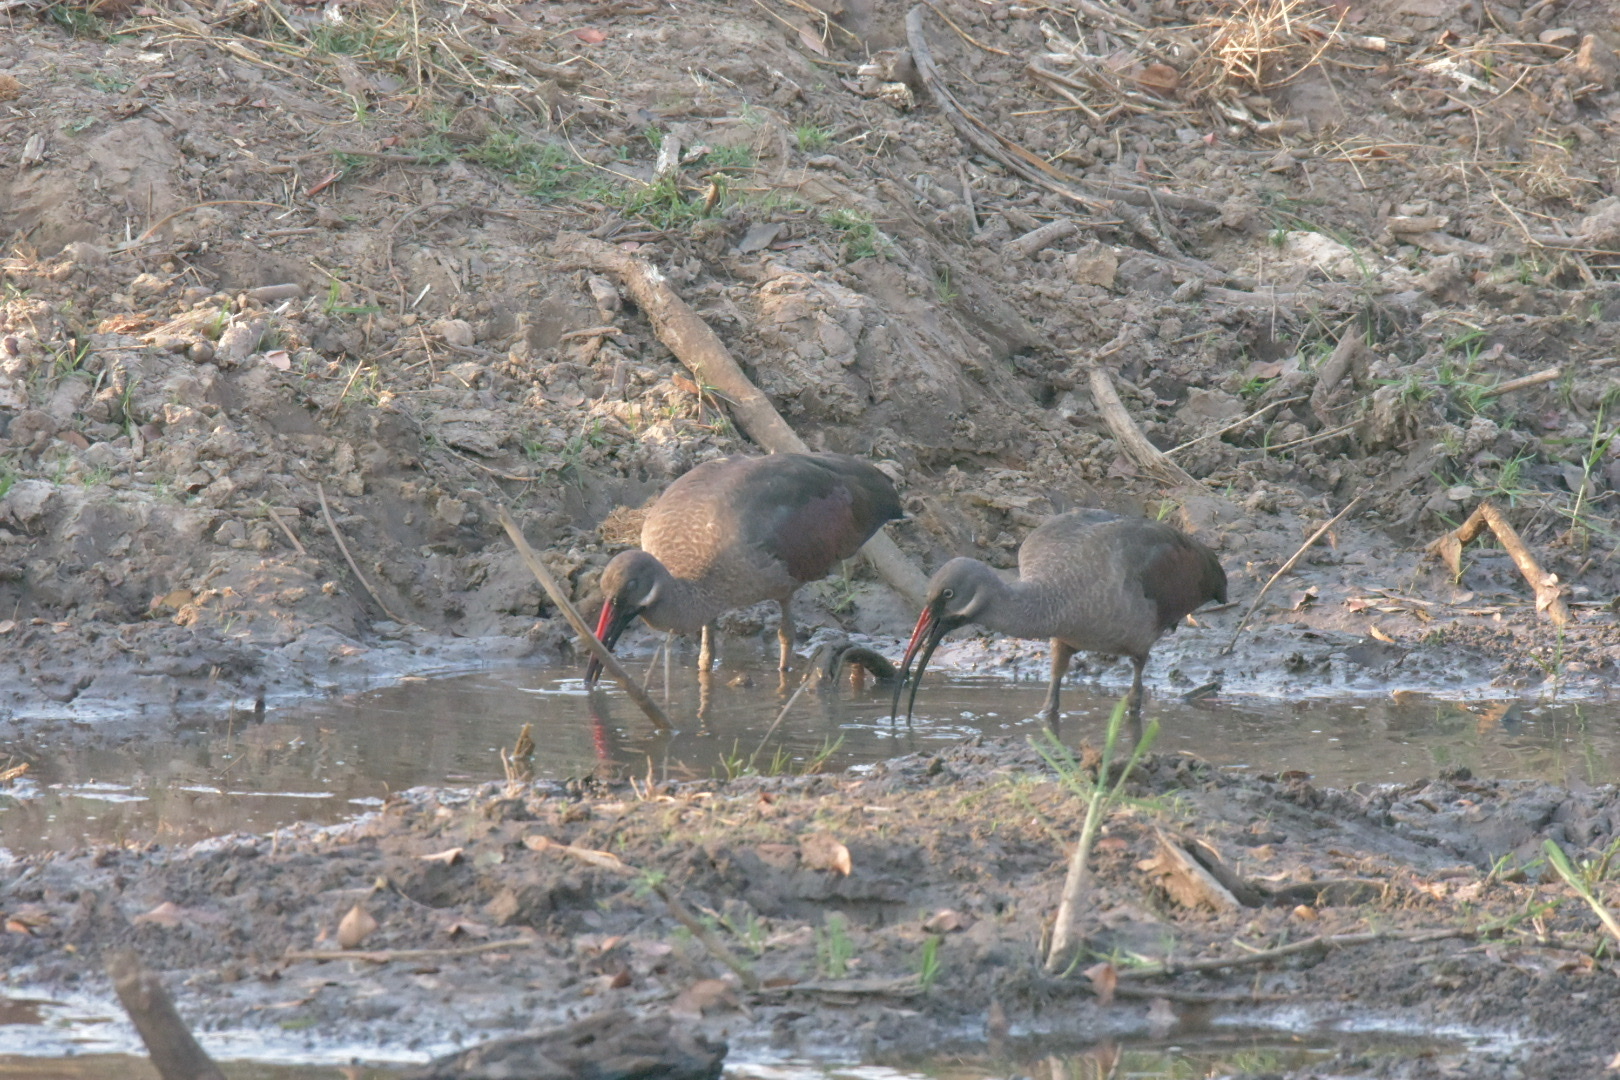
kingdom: Animalia
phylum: Chordata
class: Aves
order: Pelecaniformes
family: Threskiornithidae
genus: Bostrychia
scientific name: Bostrychia hagedash
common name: Hadada ibis
